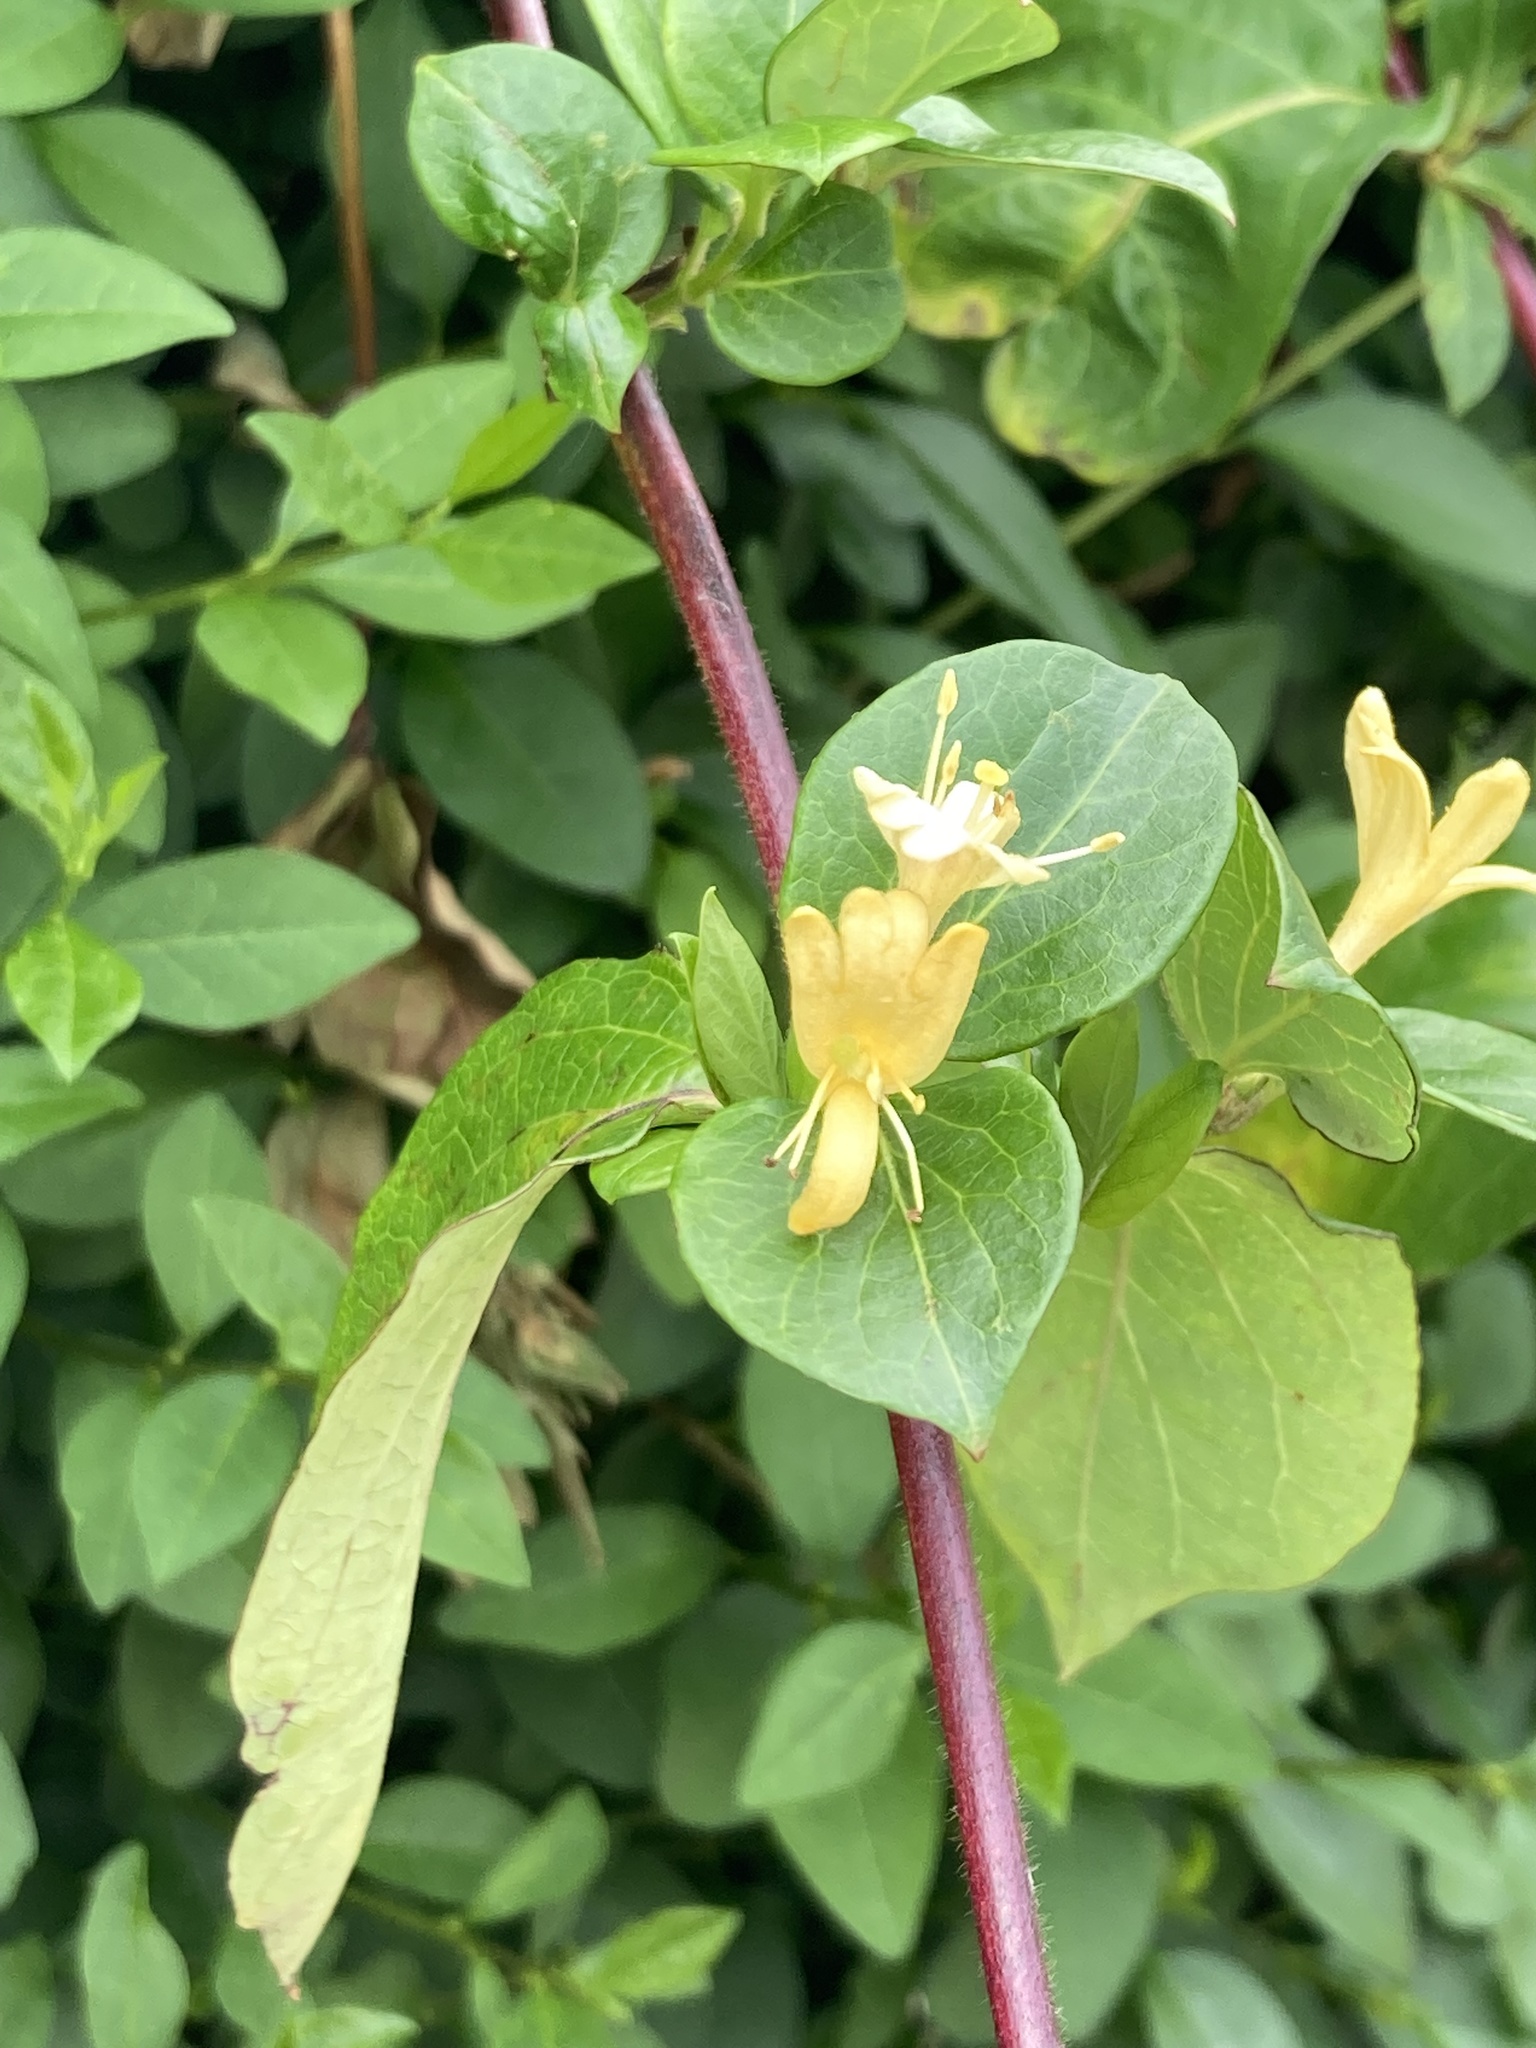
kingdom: Plantae
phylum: Tracheophyta
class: Magnoliopsida
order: Dipsacales
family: Caprifoliaceae
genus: Lonicera
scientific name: Lonicera japonica
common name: Japanese honeysuckle
